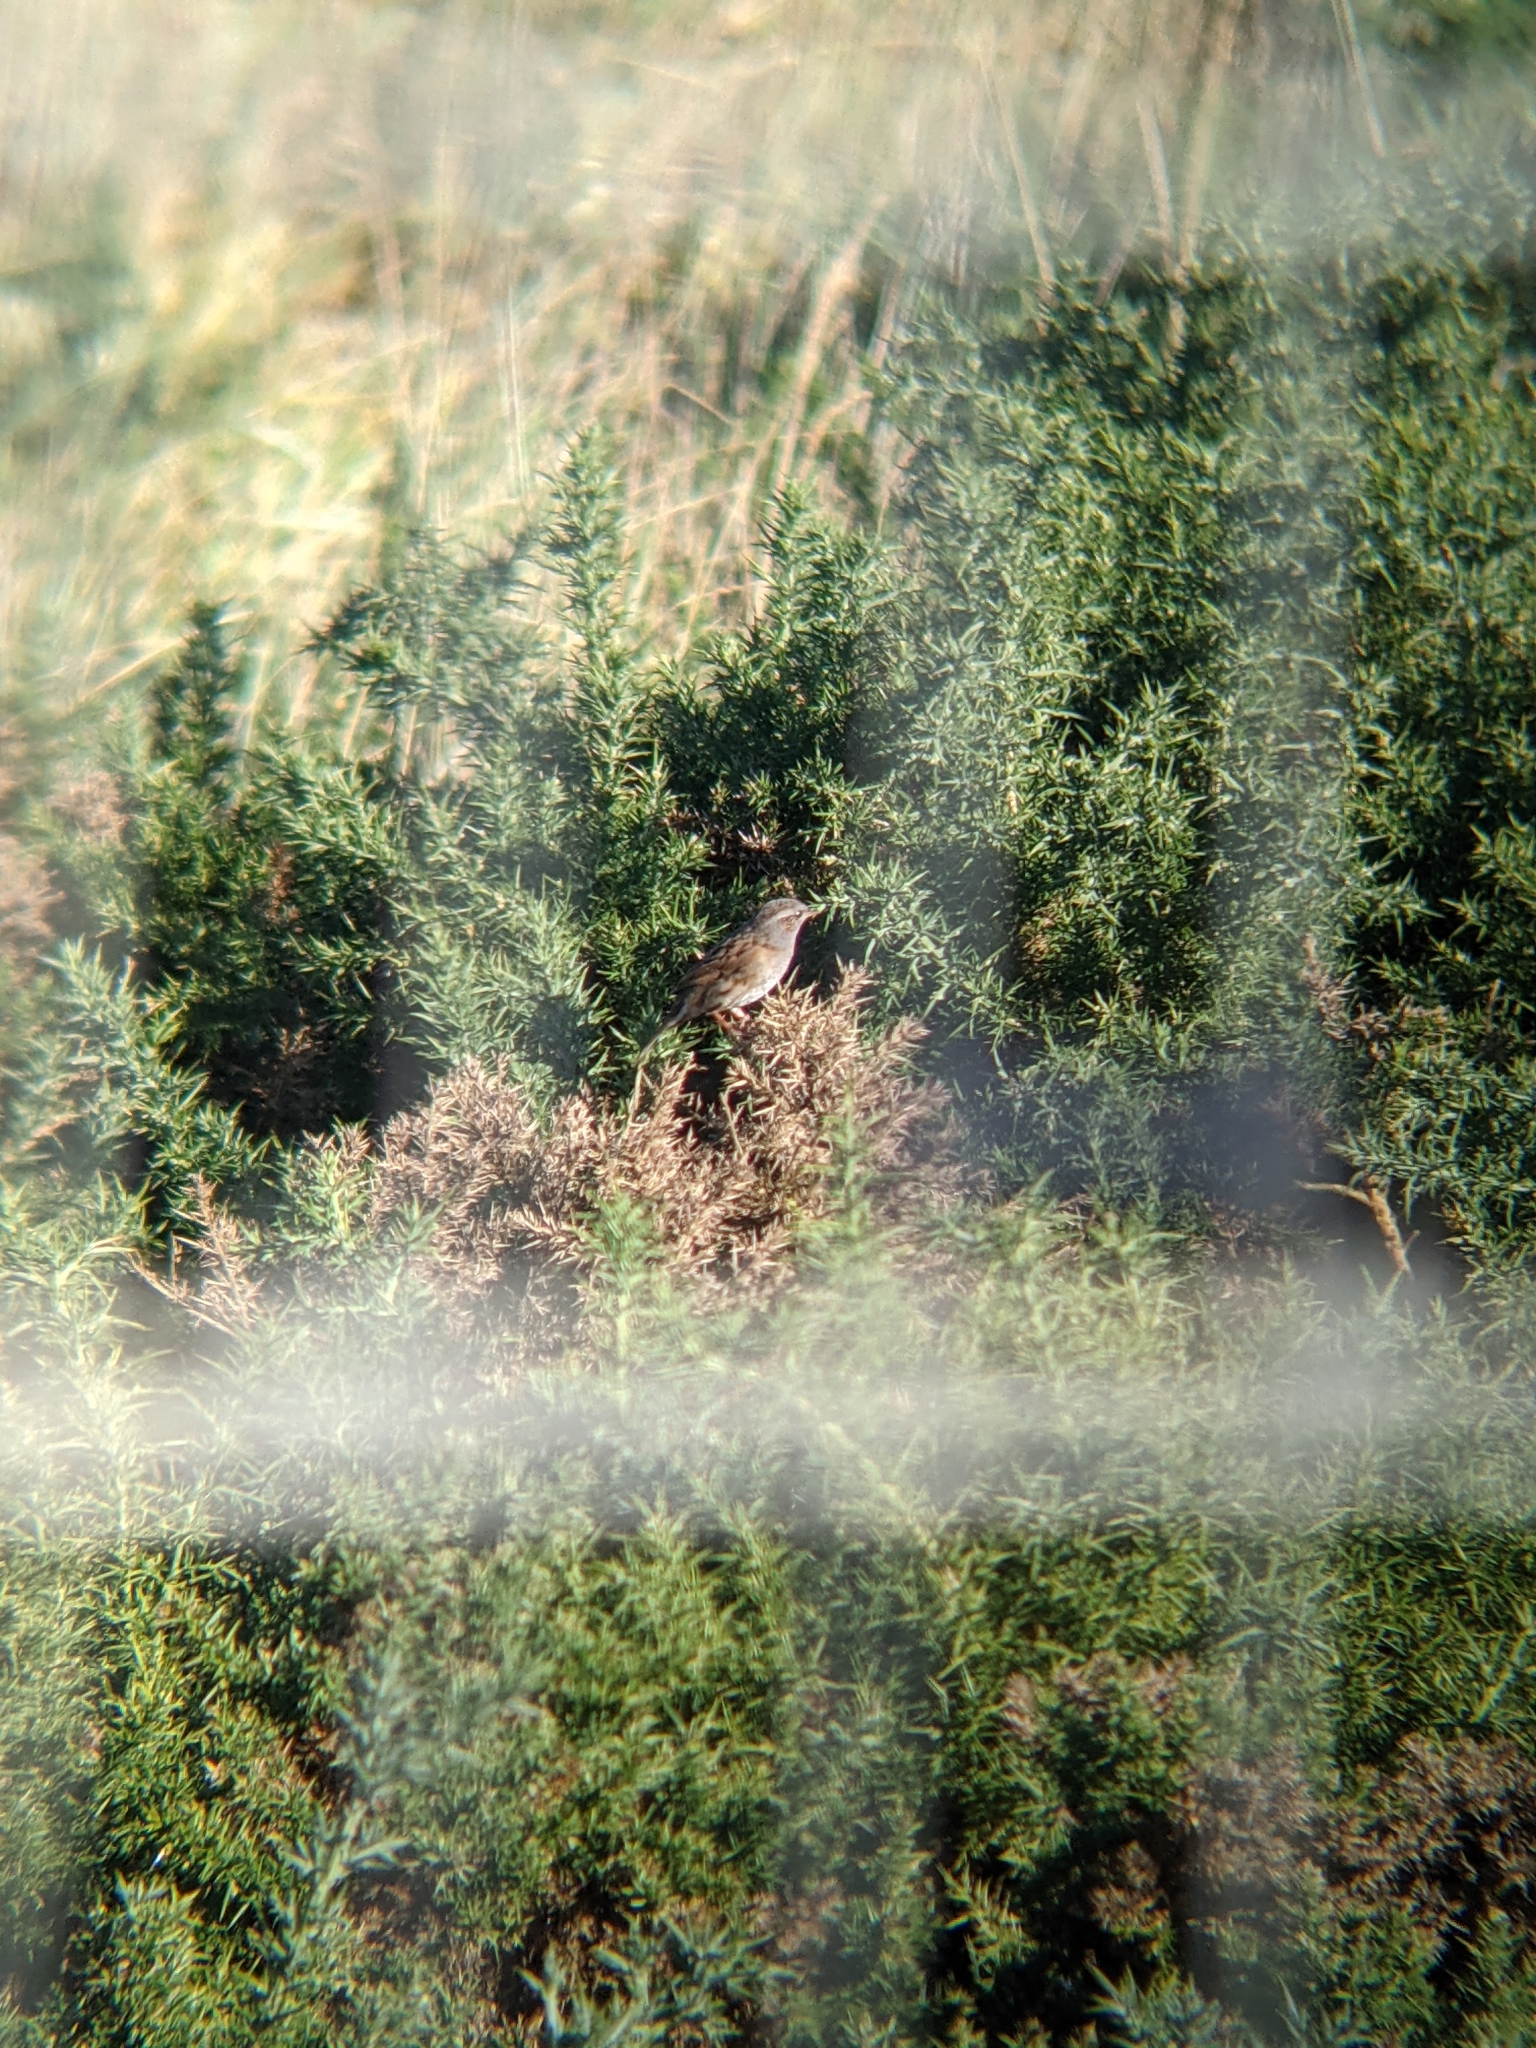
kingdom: Animalia
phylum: Chordata
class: Aves
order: Passeriformes
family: Prunellidae
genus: Prunella
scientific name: Prunella modularis
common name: Dunnock
